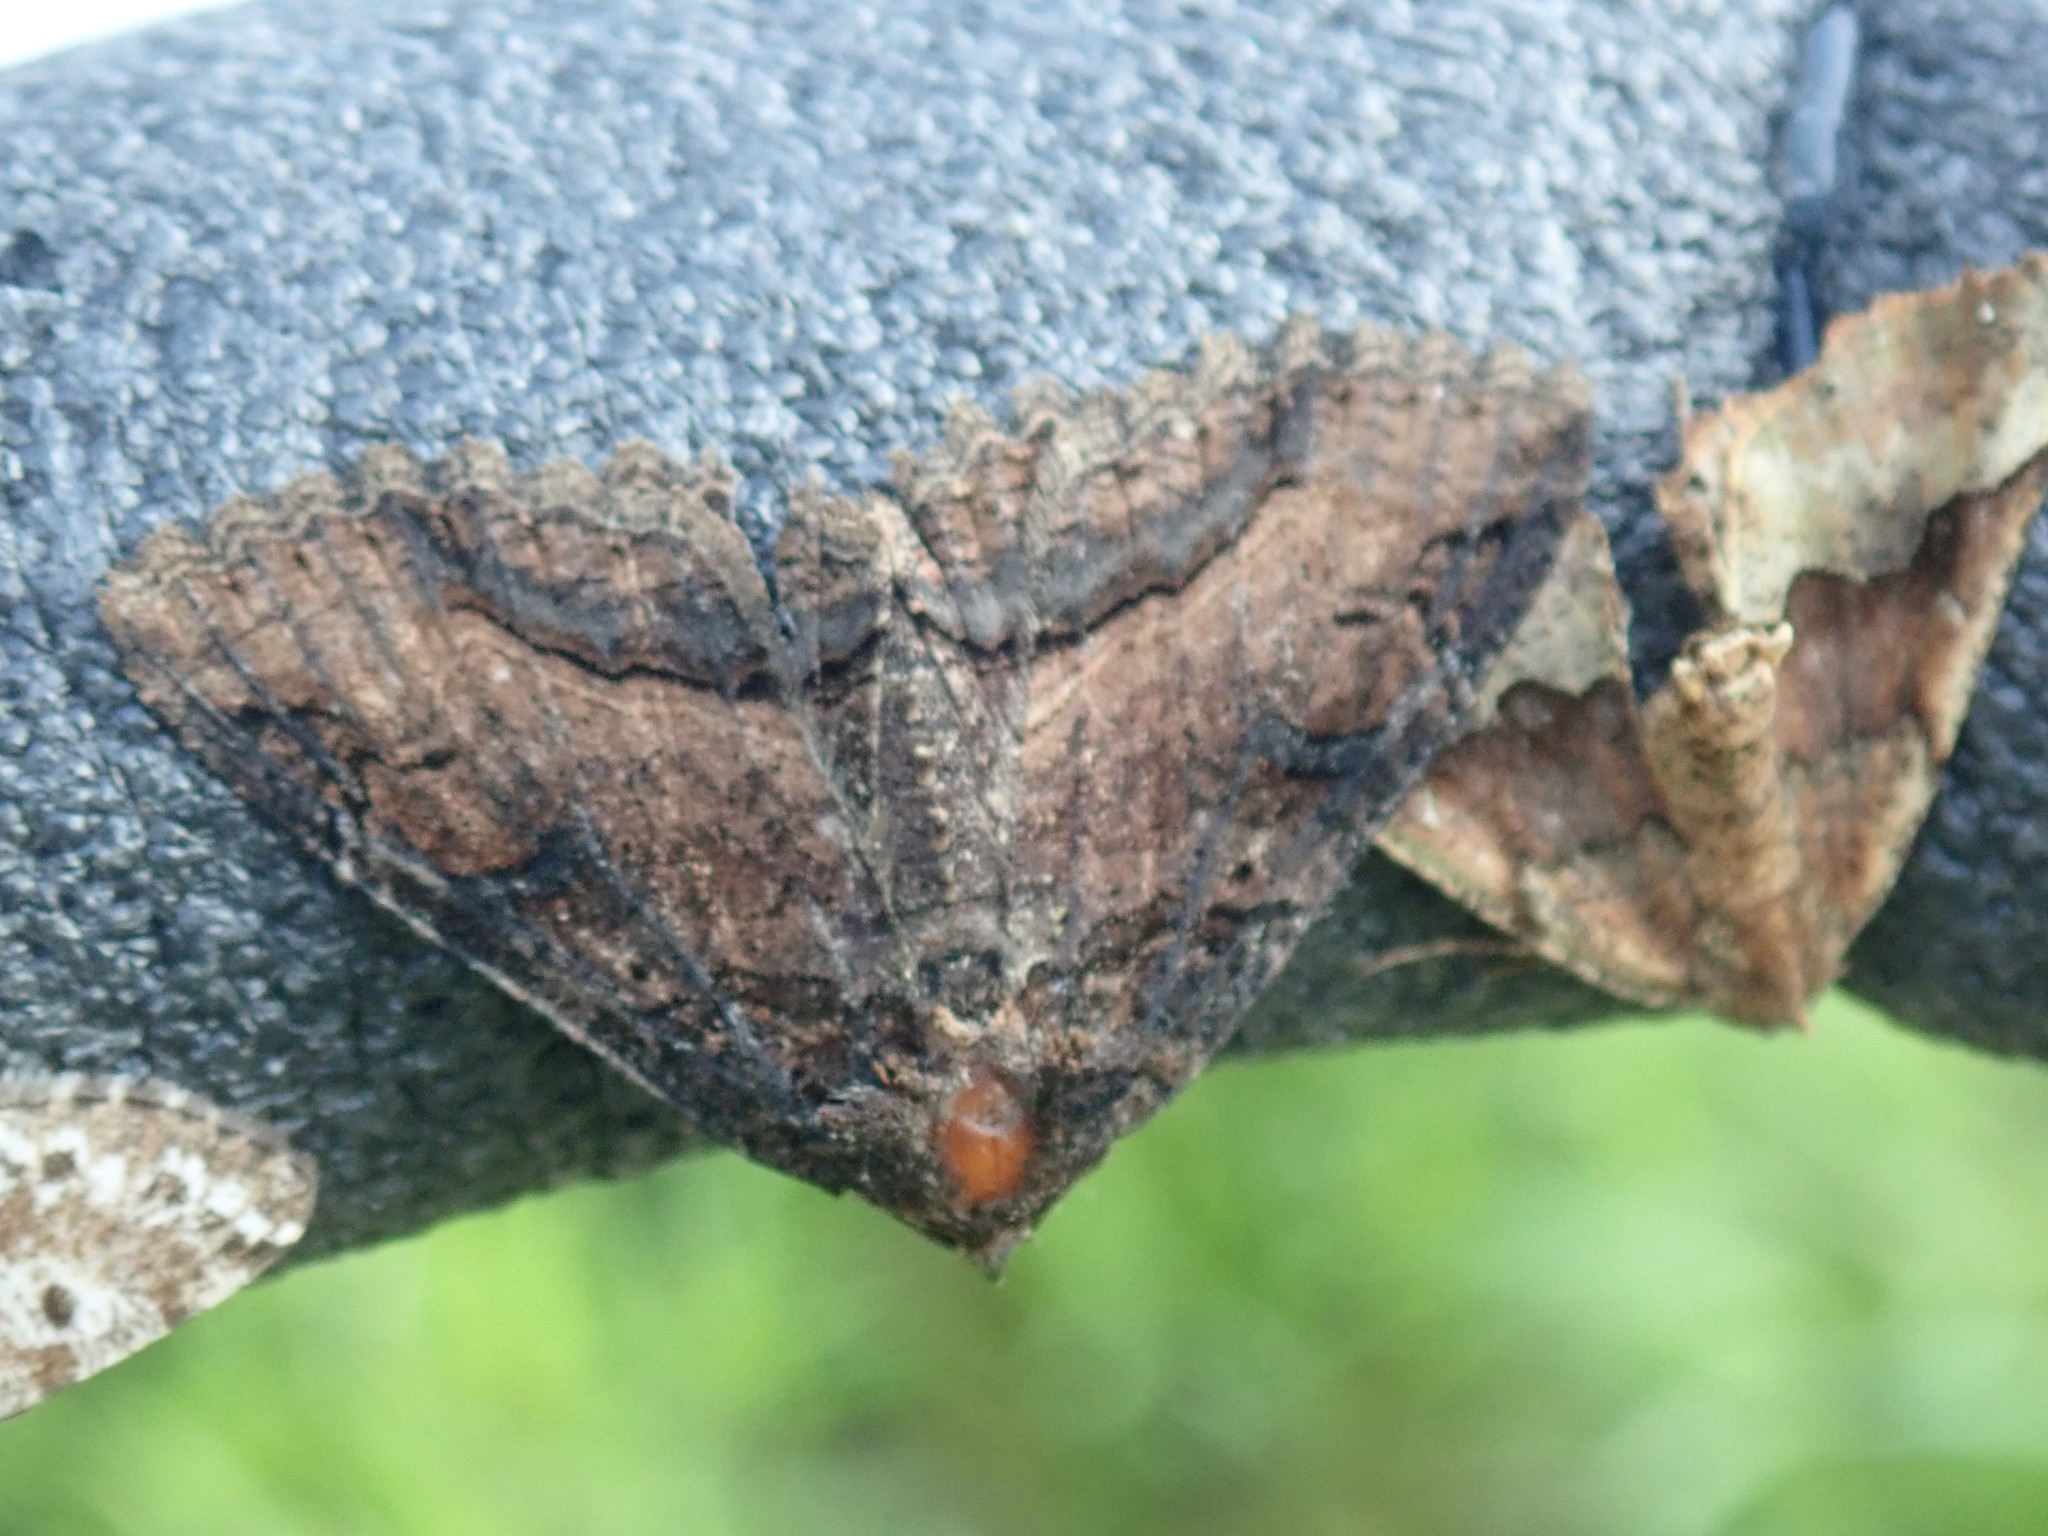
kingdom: Animalia
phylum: Arthropoda
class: Insecta
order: Lepidoptera
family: Erebidae
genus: Zale
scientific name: Zale minerea
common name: Colorful zale moth
